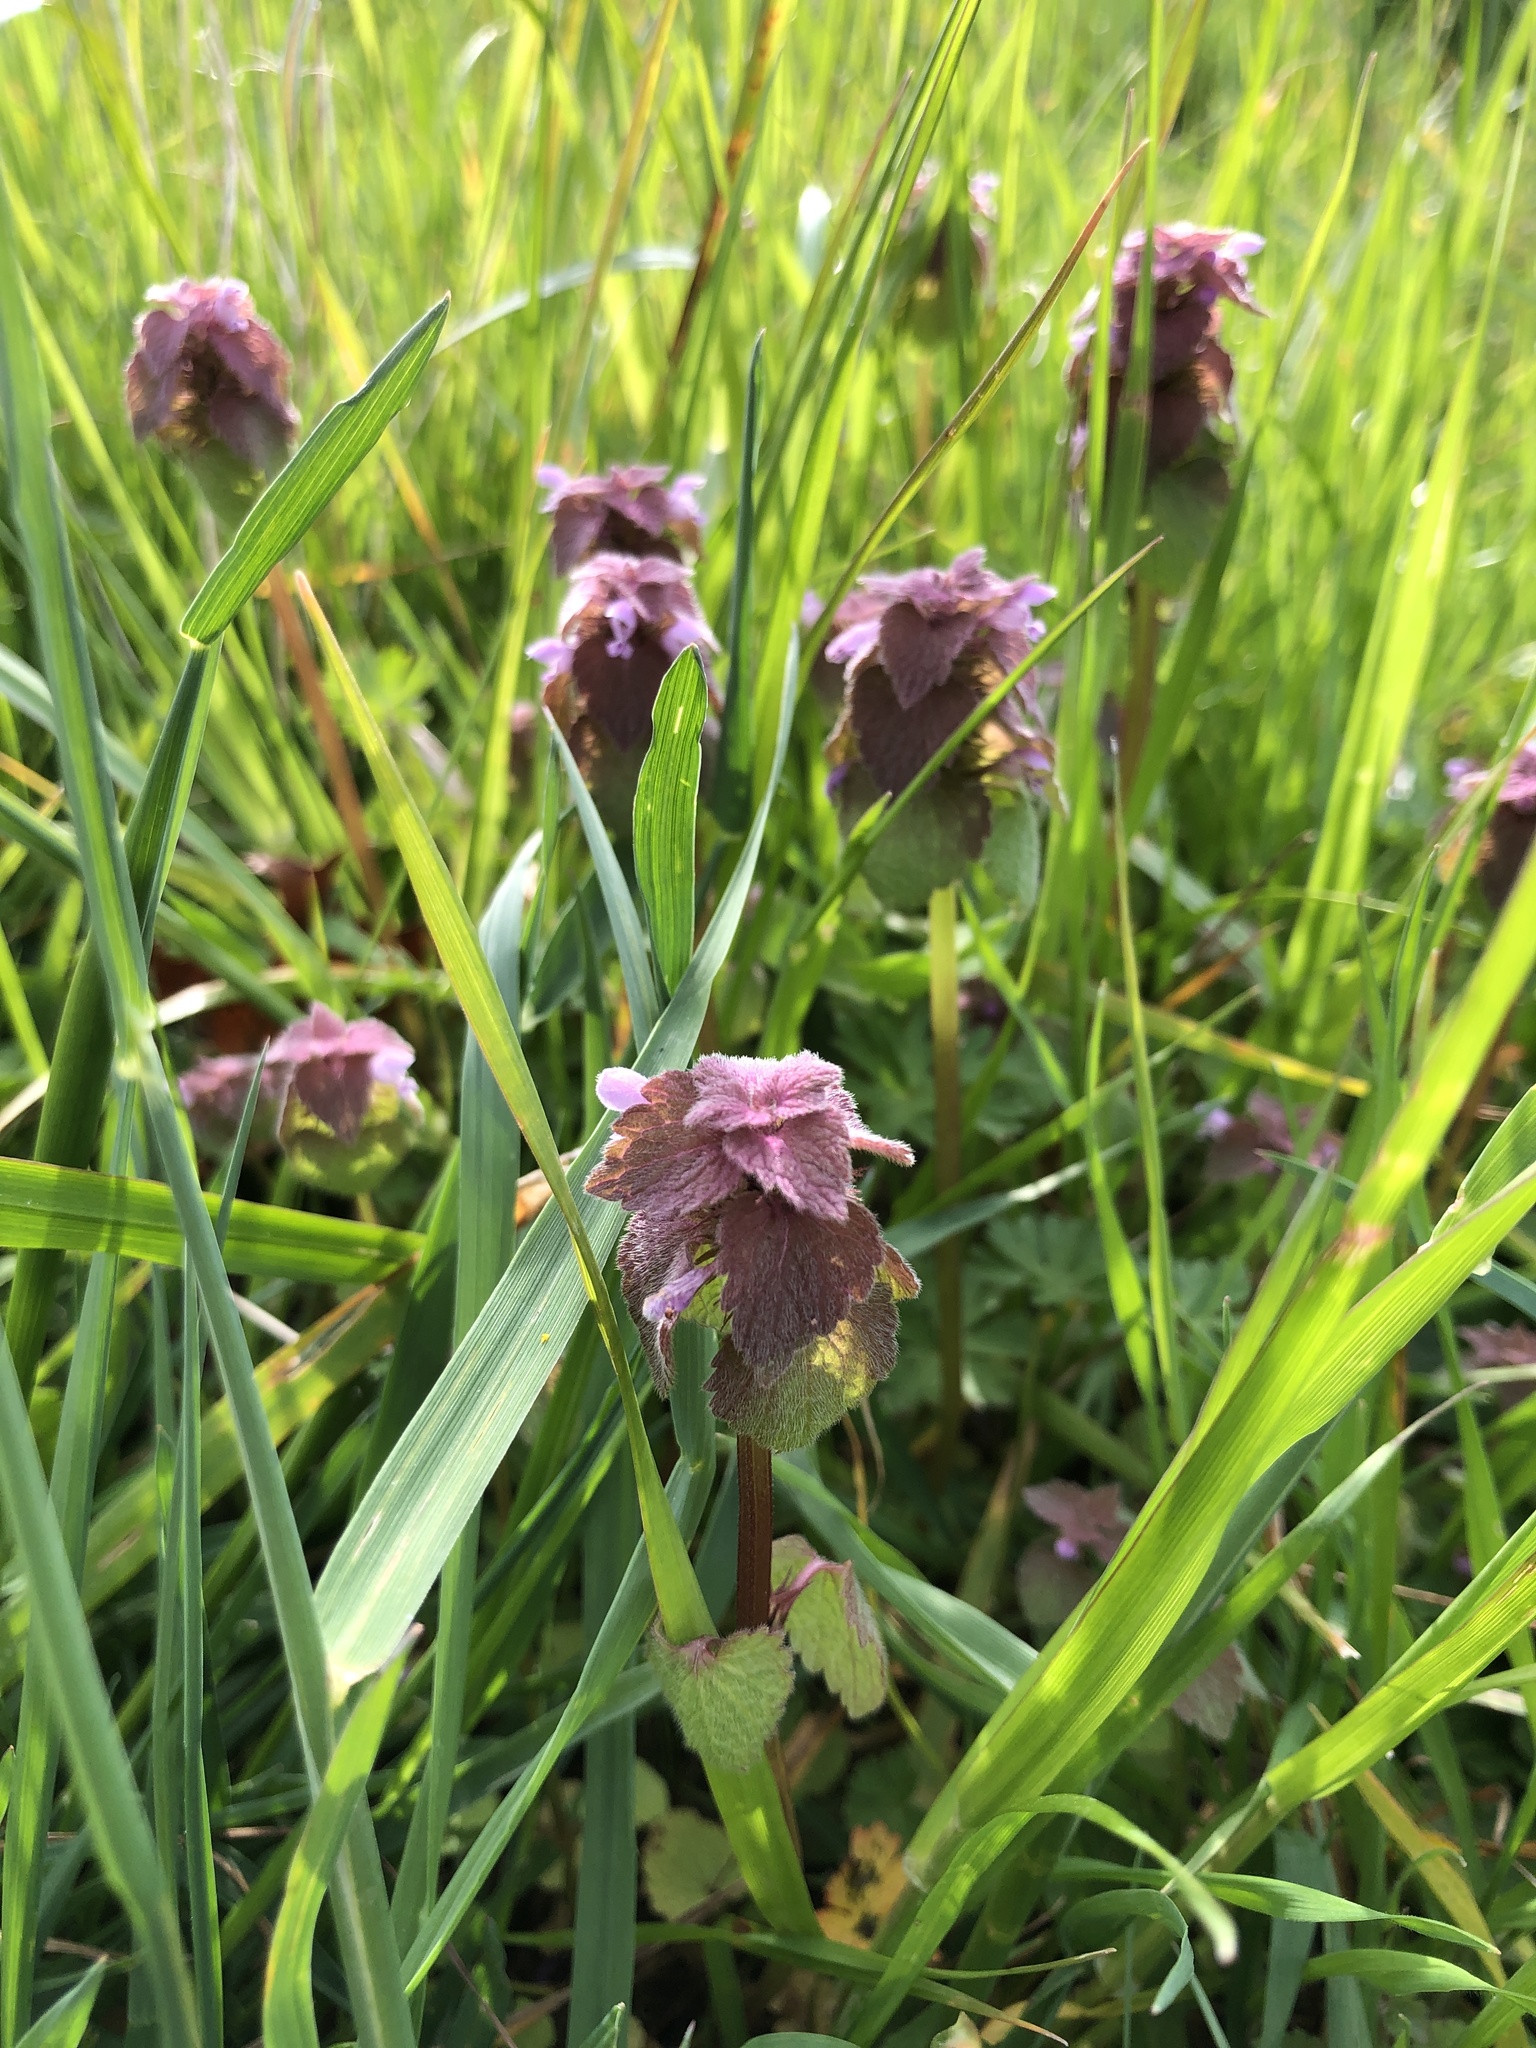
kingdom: Plantae
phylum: Tracheophyta
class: Magnoliopsida
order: Lamiales
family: Lamiaceae
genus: Lamium
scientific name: Lamium purpureum
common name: Red dead-nettle
